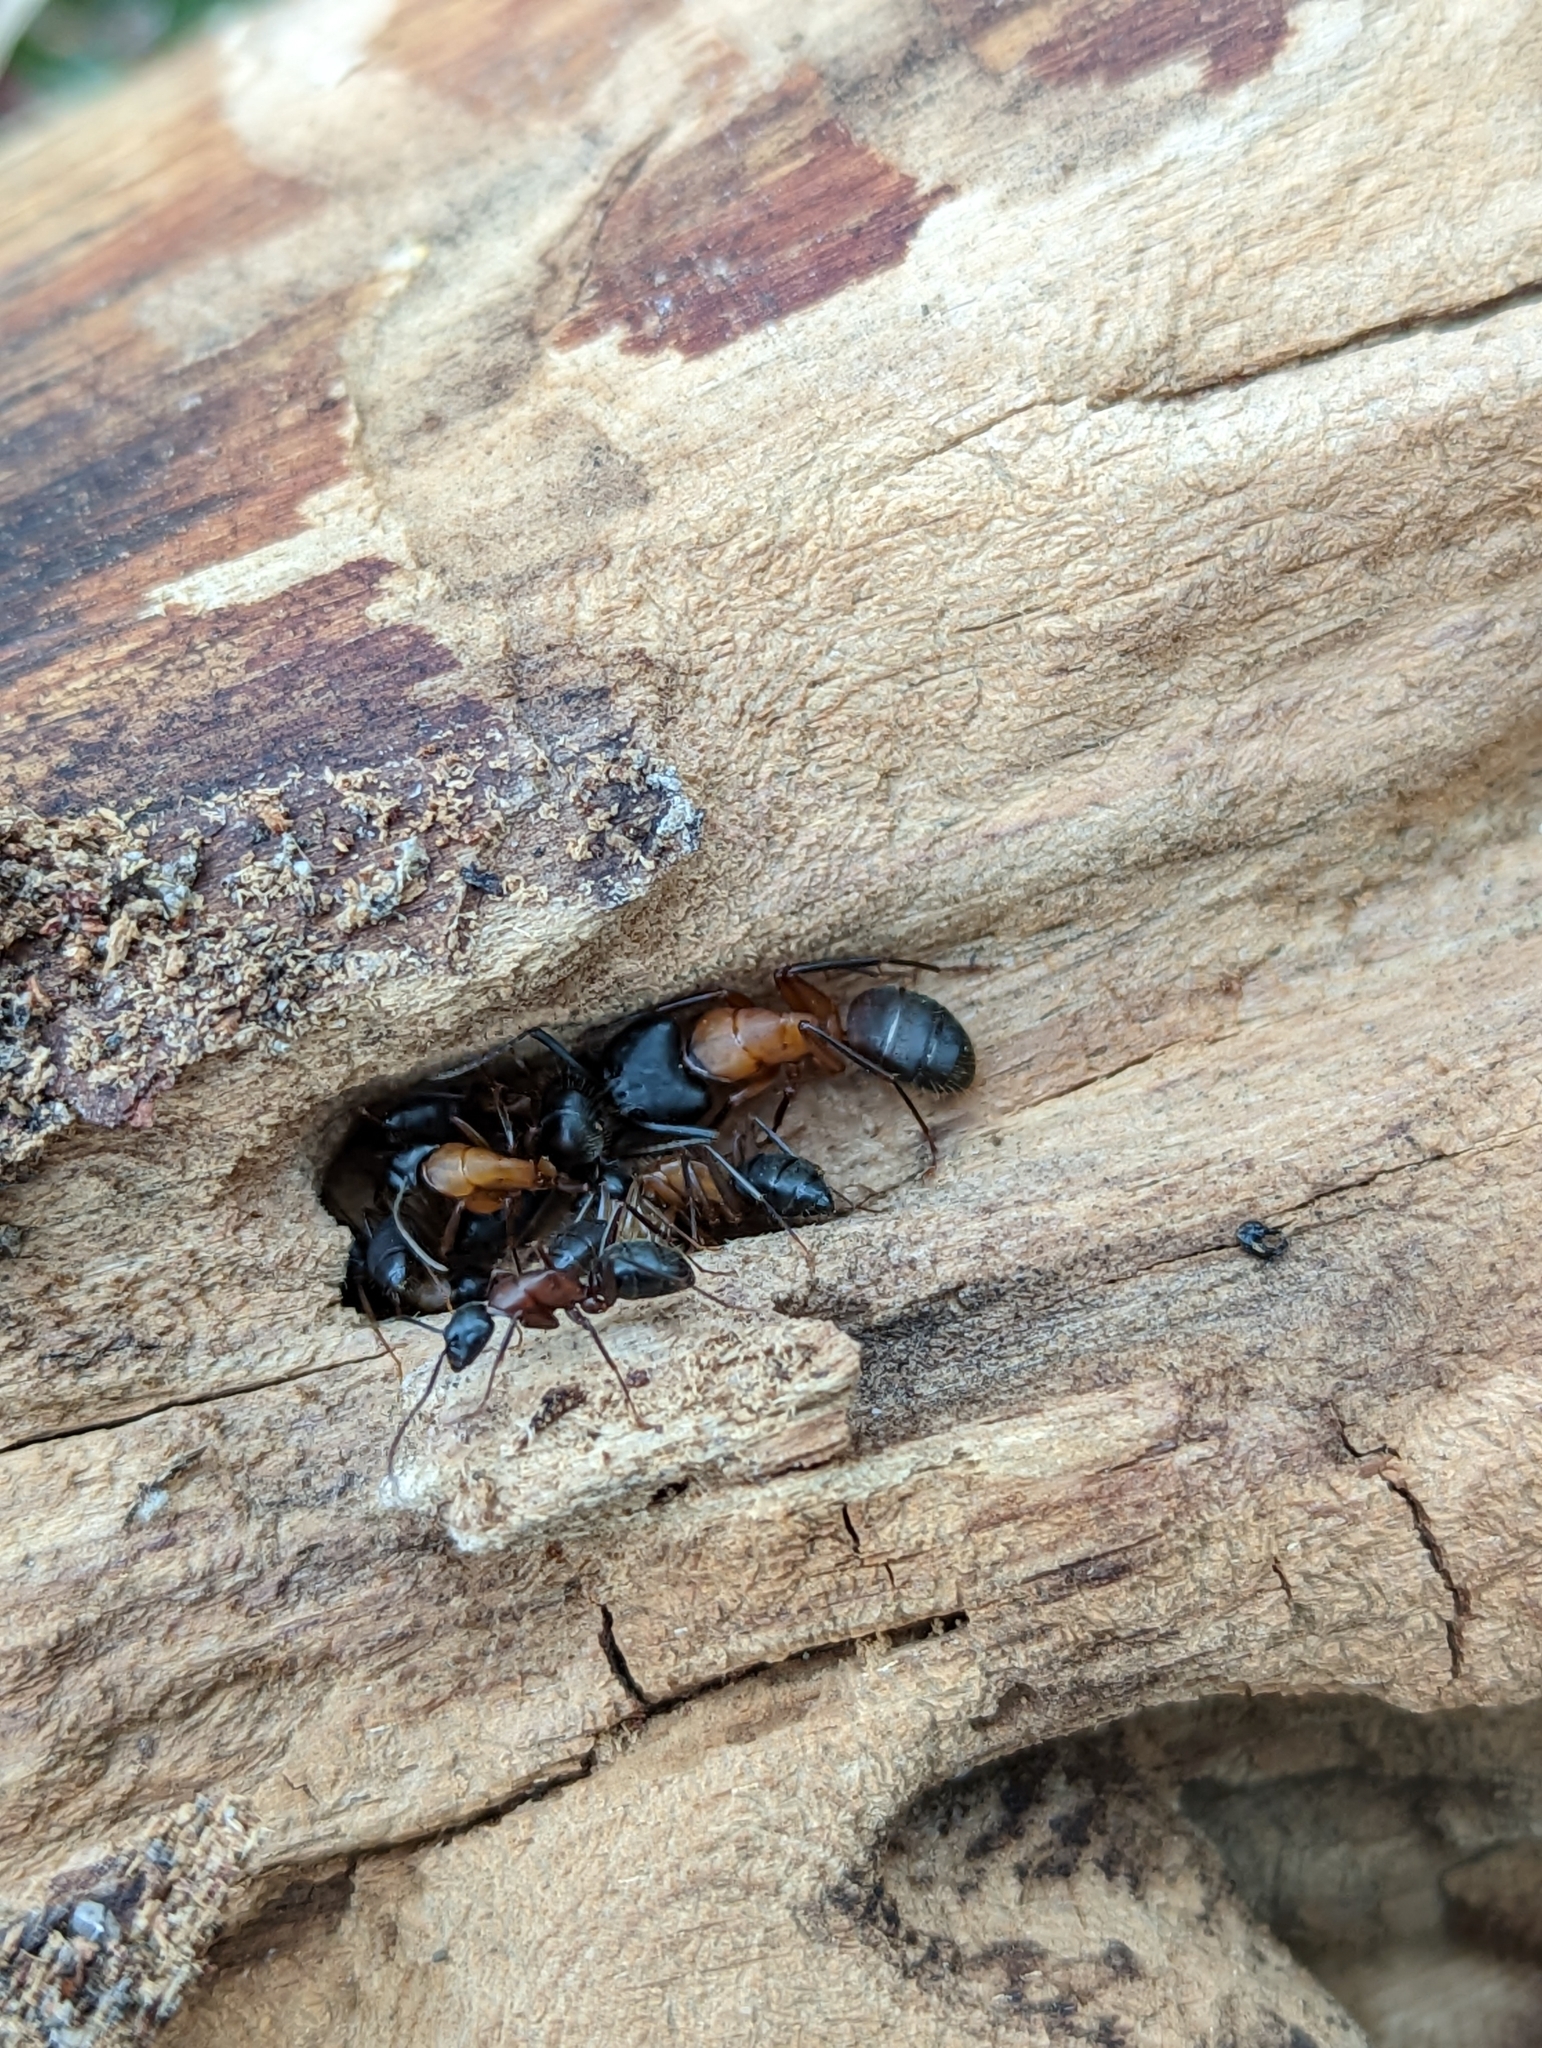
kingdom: Animalia
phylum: Arthropoda
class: Insecta
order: Hymenoptera
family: Formicidae
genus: Camponotus
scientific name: Camponotus vicinus
